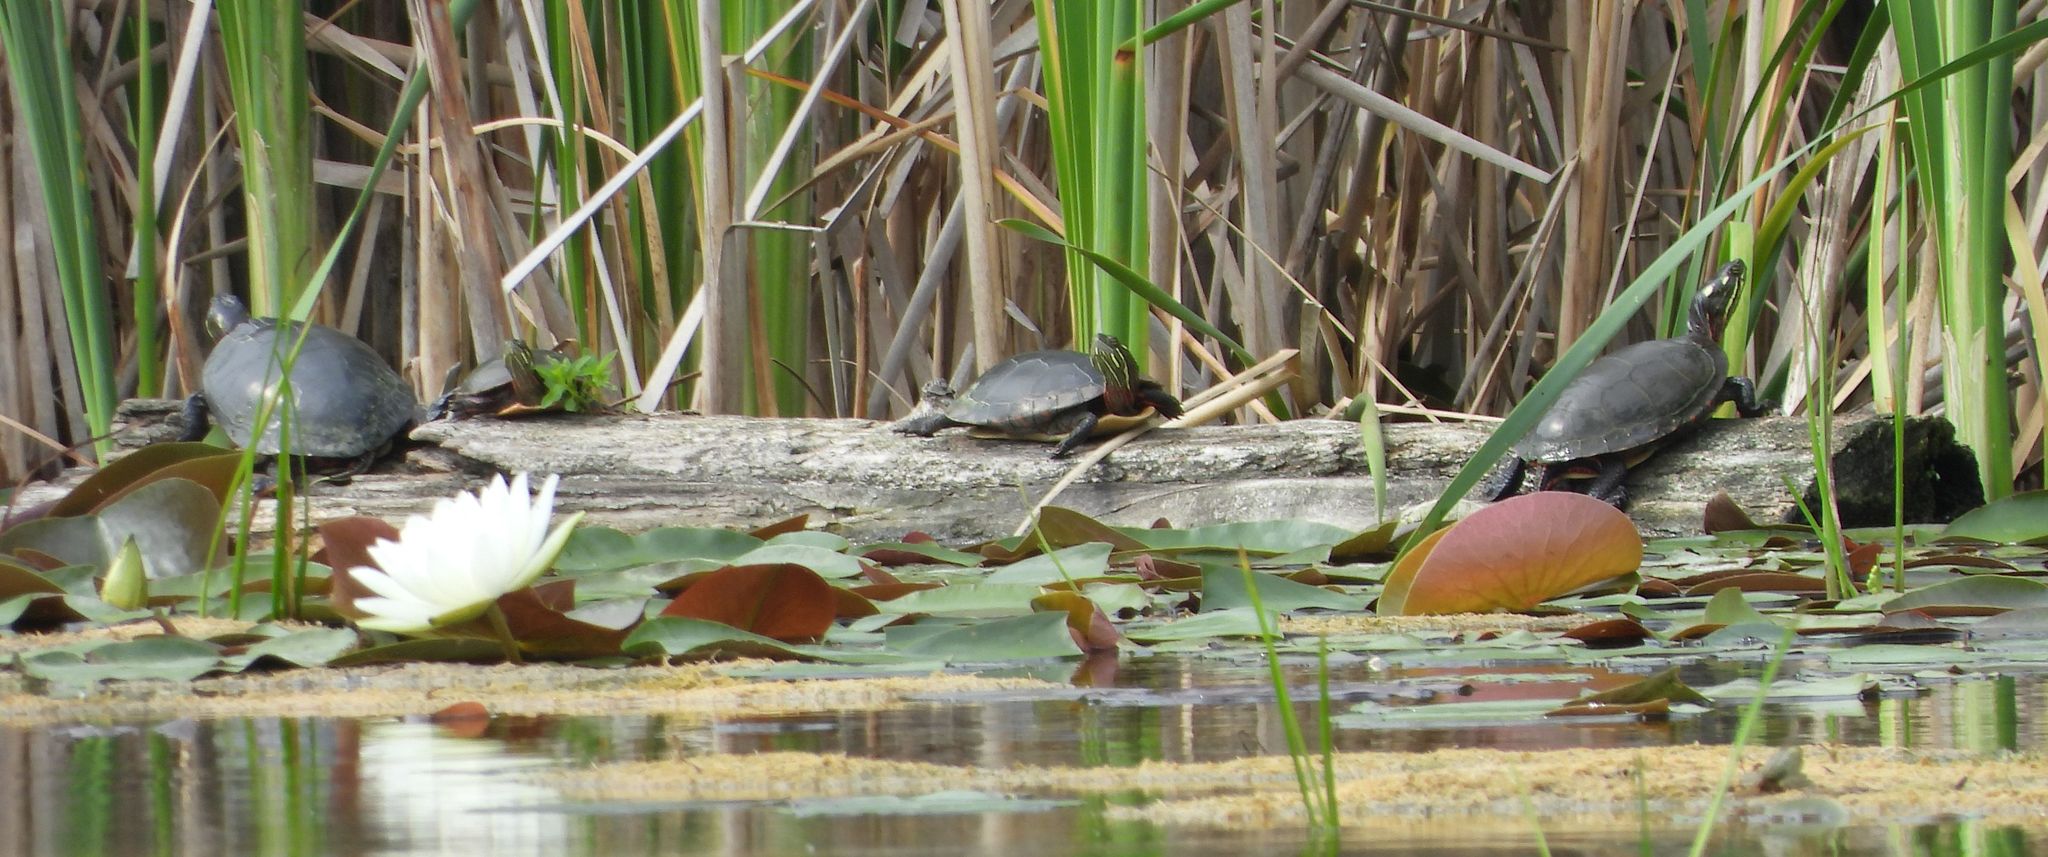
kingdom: Animalia
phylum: Chordata
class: Testudines
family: Emydidae
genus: Chrysemys
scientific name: Chrysemys picta
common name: Painted turtle
